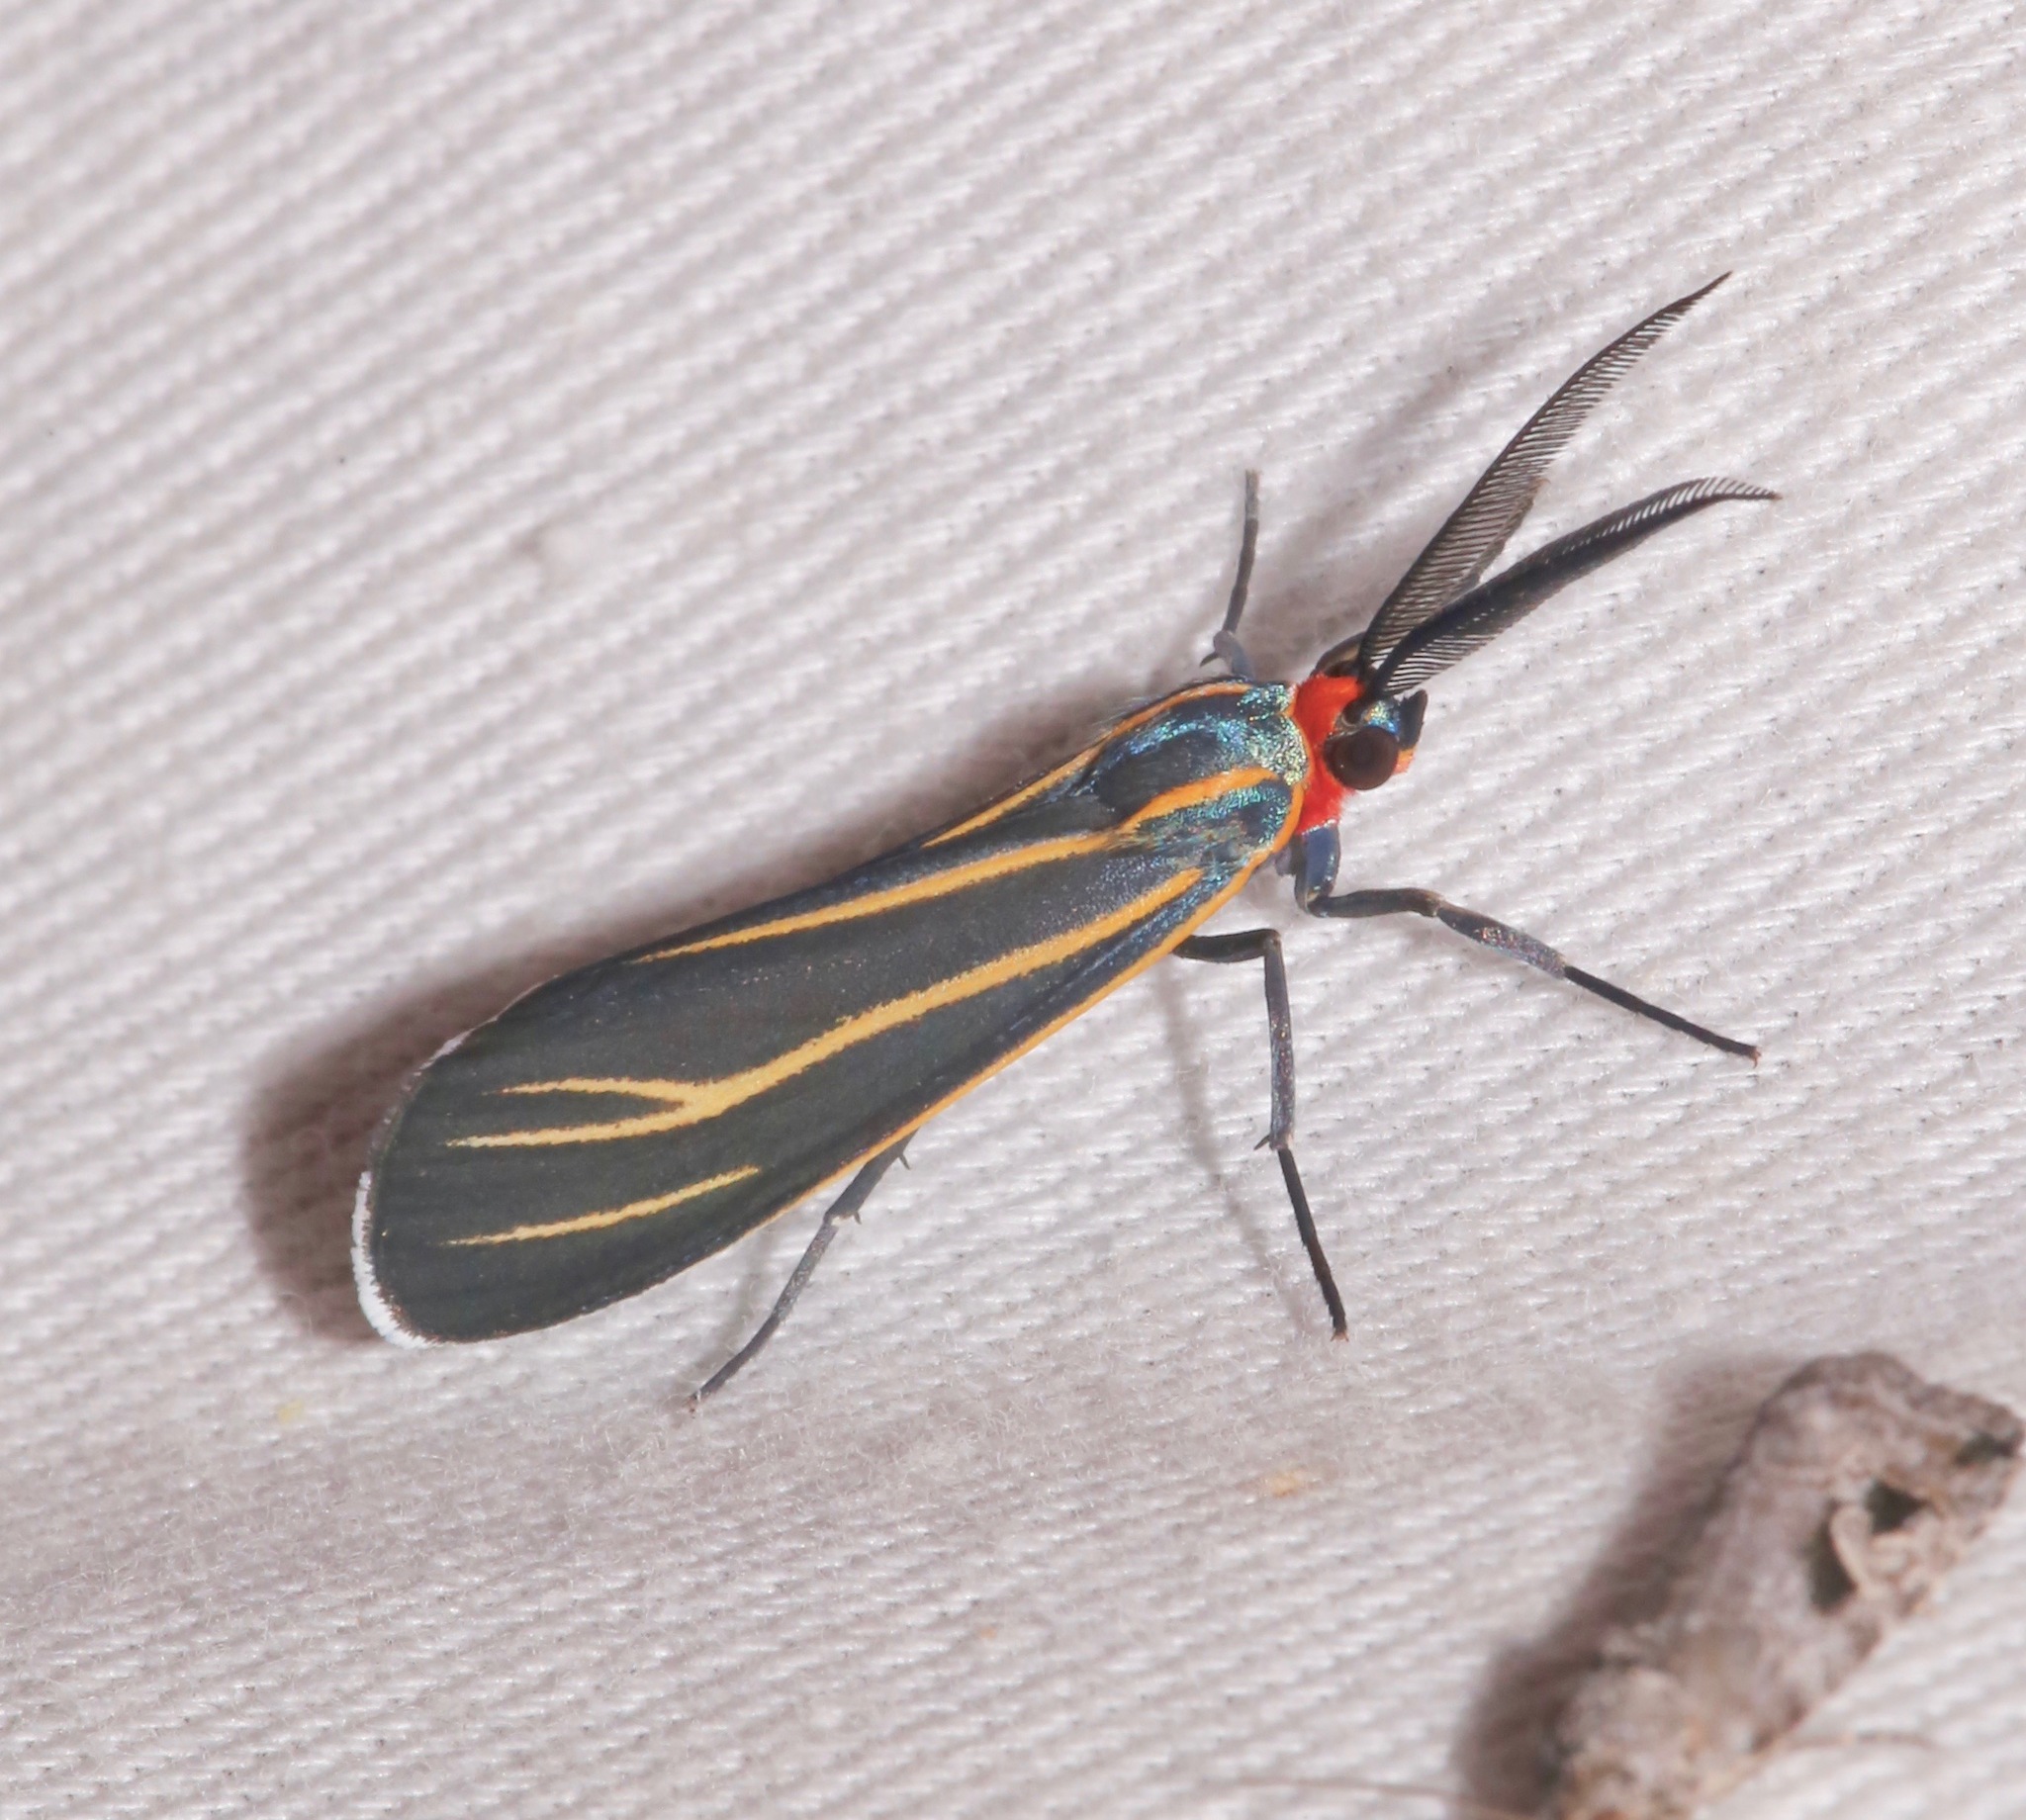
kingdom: Animalia
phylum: Arthropoda
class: Insecta
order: Lepidoptera
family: Erebidae
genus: Ctenucha
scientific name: Ctenucha venosa
